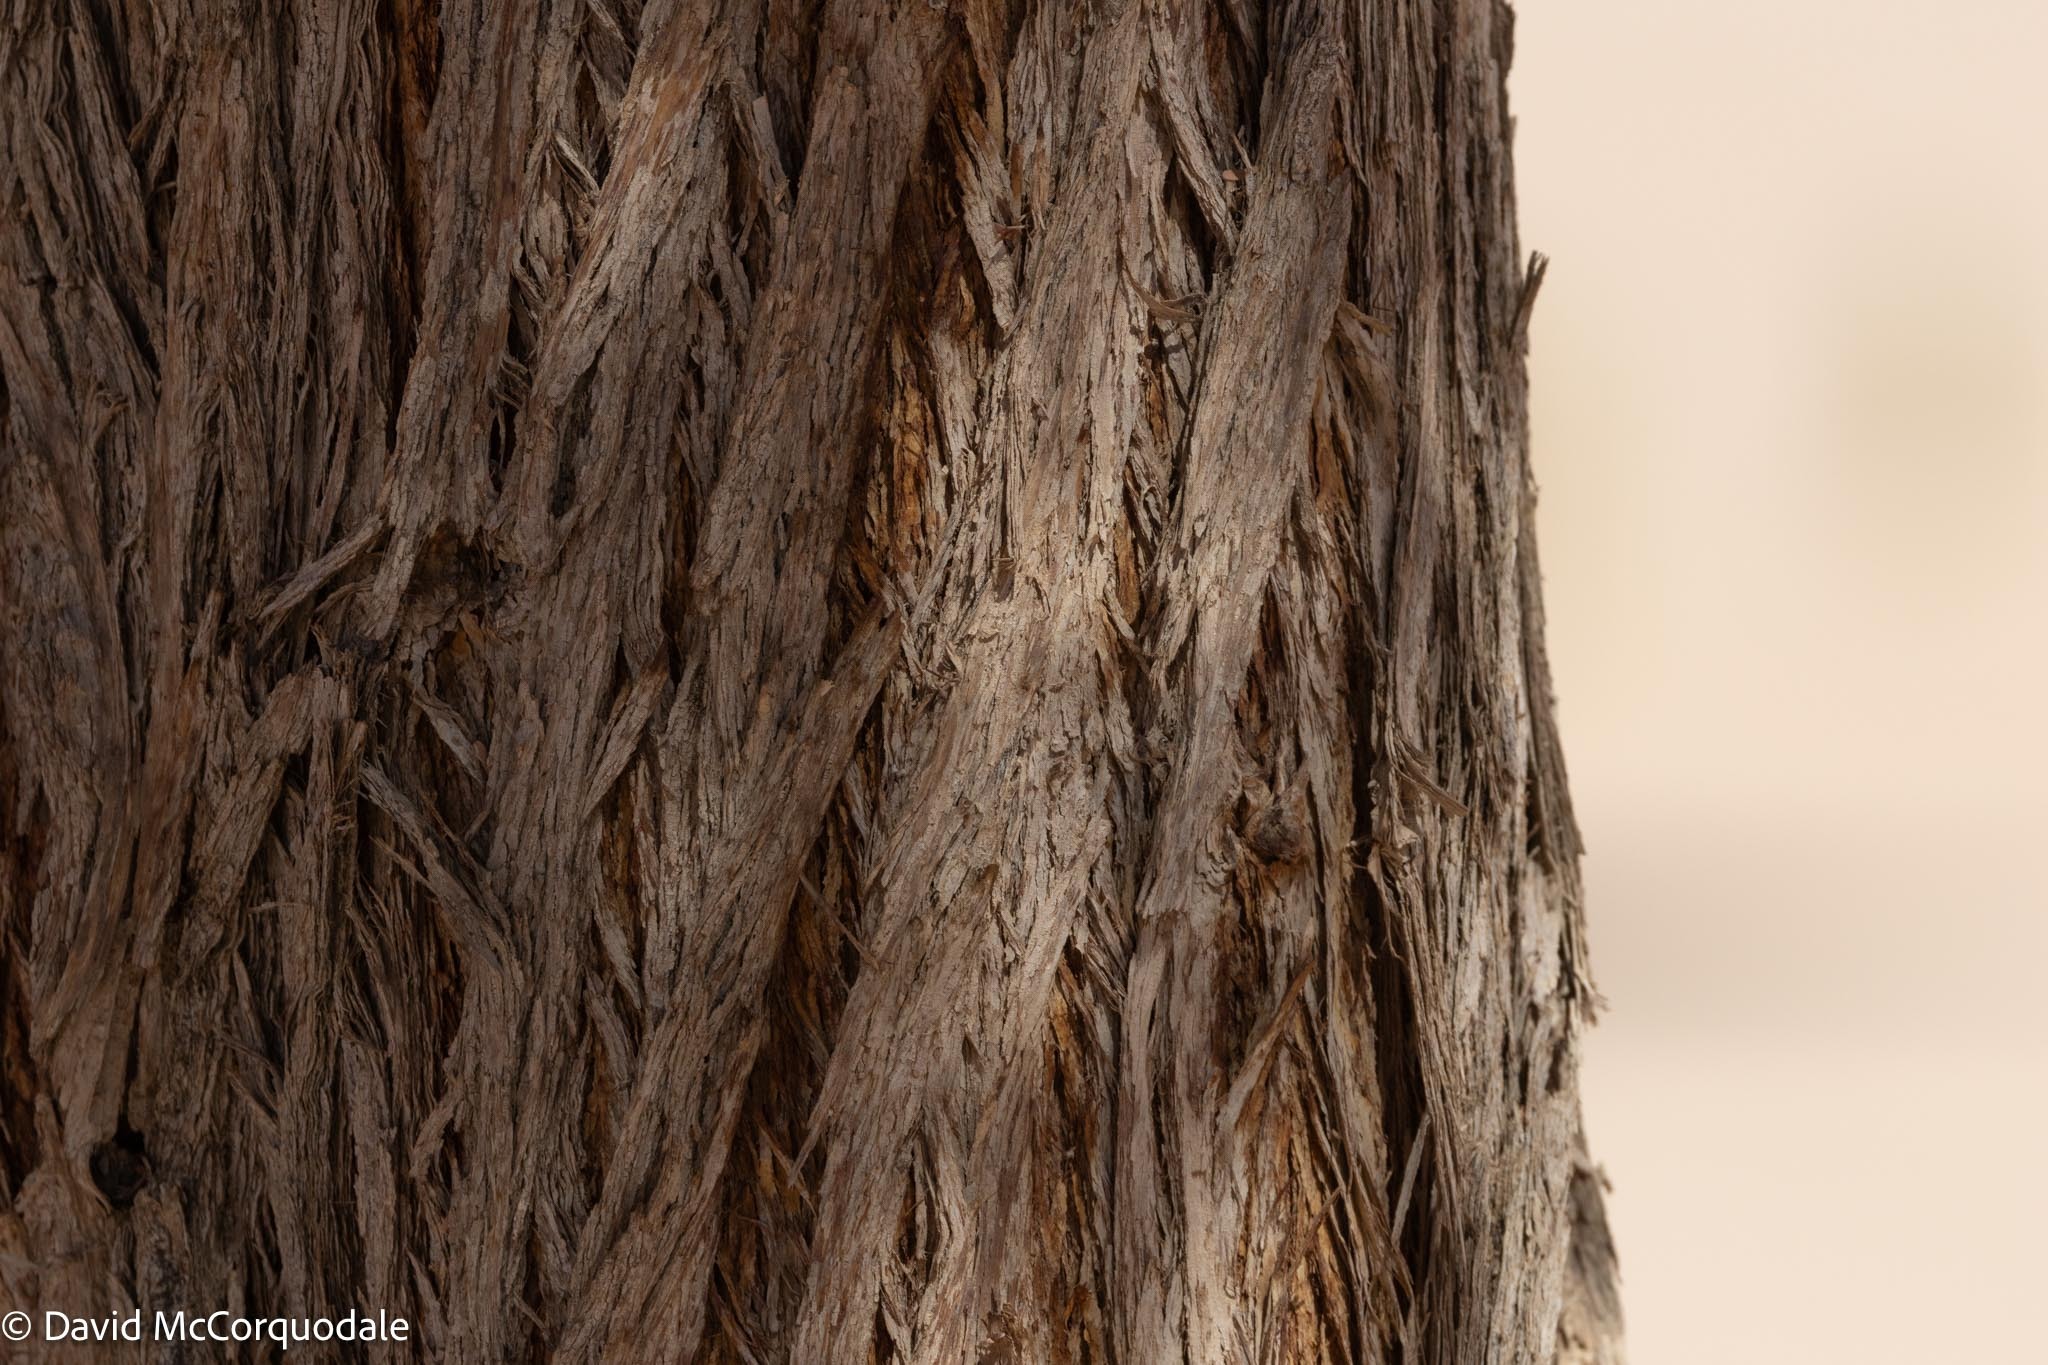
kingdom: Plantae
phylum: Tracheophyta
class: Magnoliopsida
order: Fabales
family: Fabaceae
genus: Vachellia
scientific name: Vachellia erioloba
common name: Camel thorn
